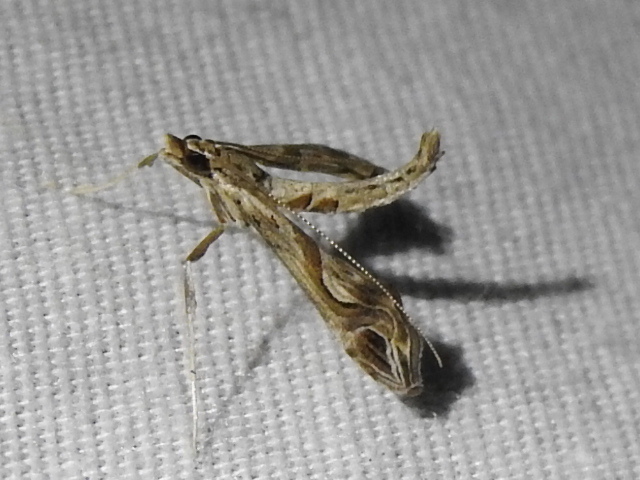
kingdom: Animalia
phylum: Arthropoda
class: Insecta
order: Lepidoptera
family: Crambidae
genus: Lineodes
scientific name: Lineodes integra
